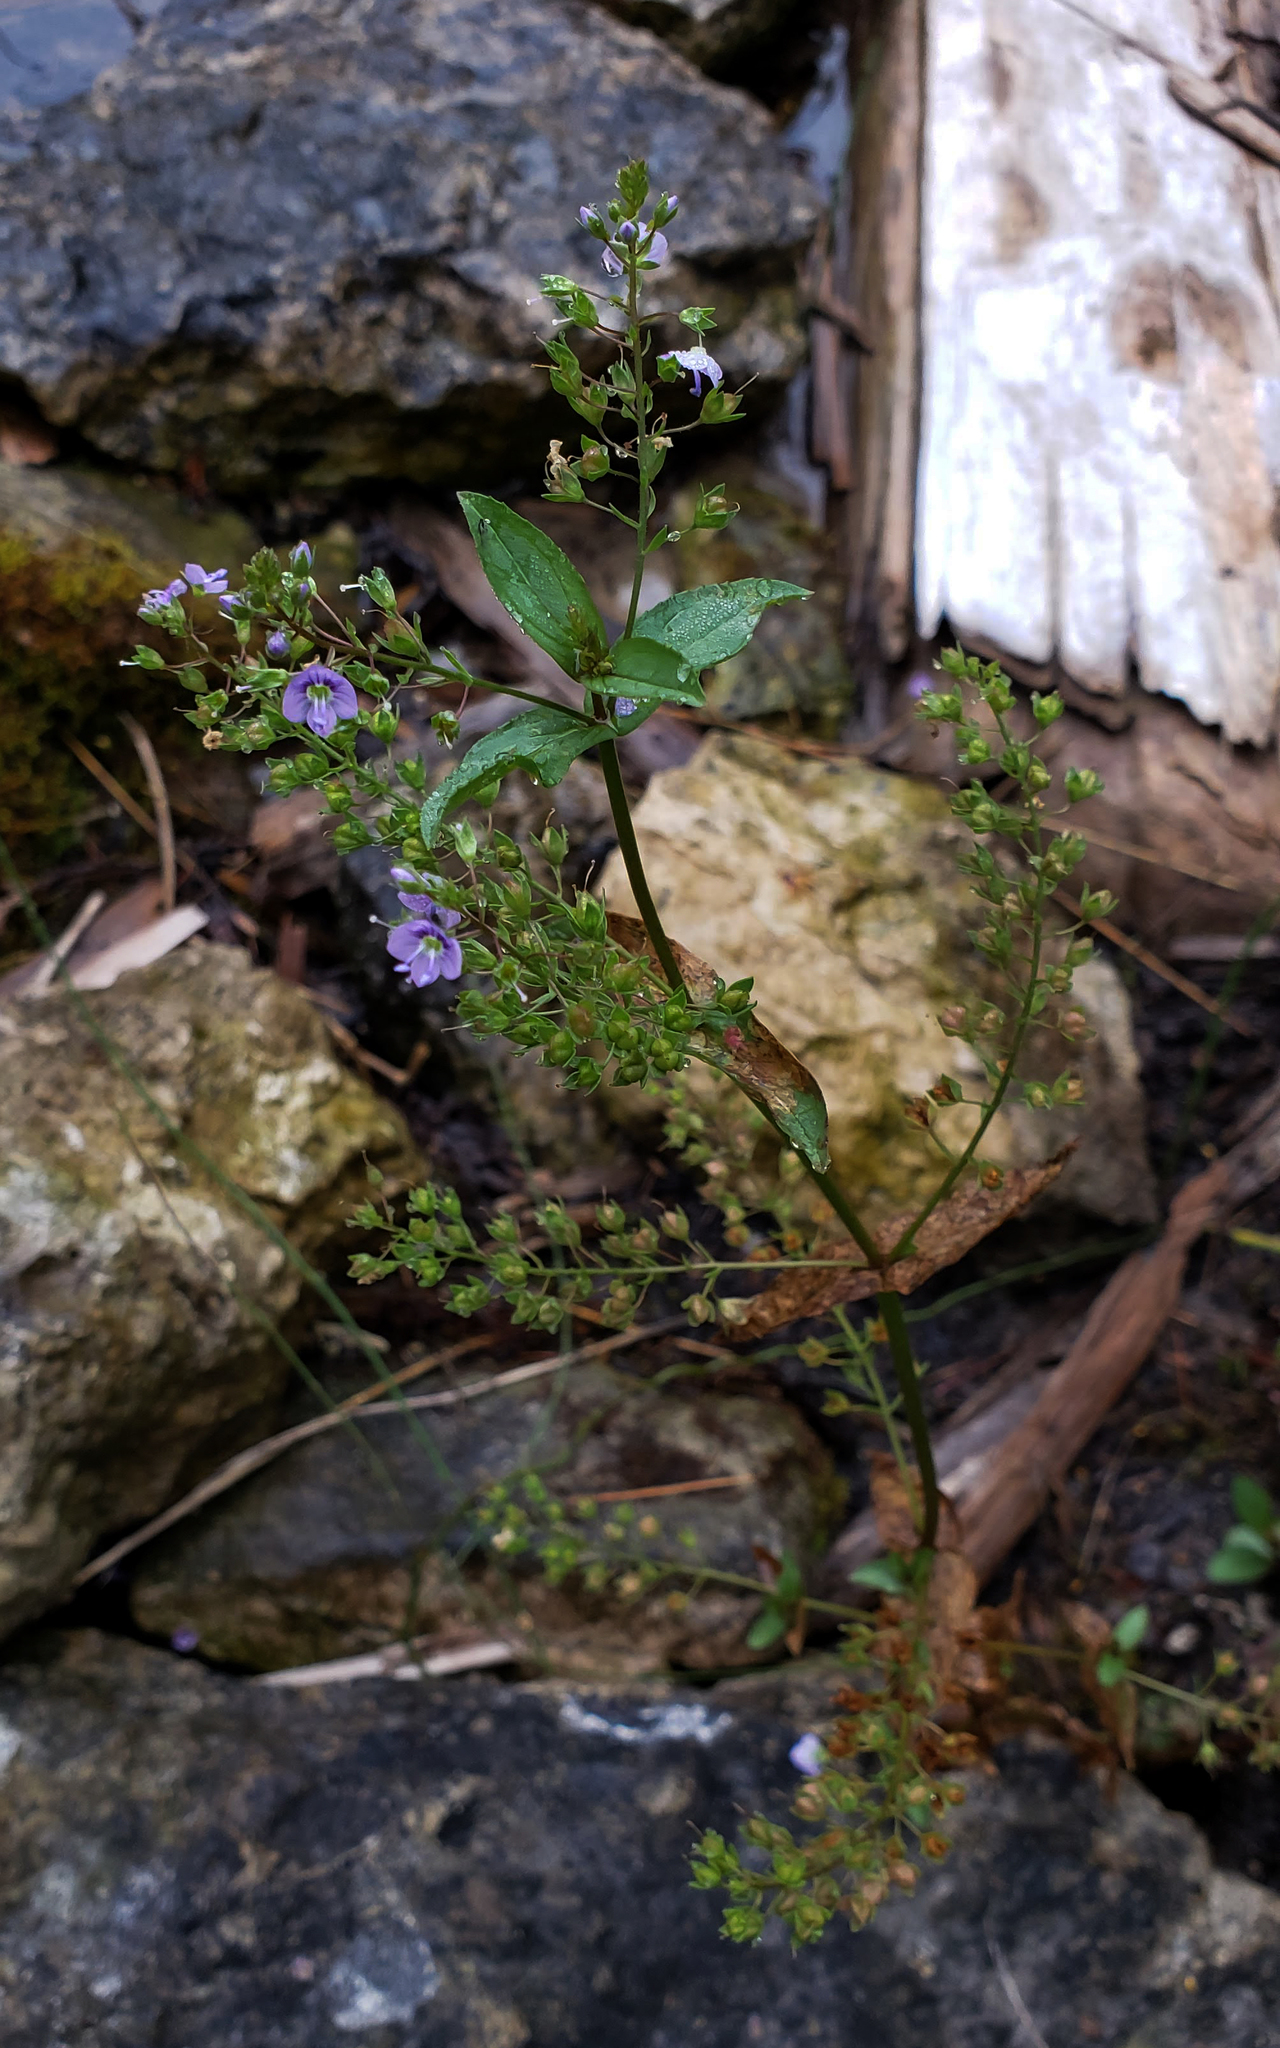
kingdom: Plantae
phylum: Tracheophyta
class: Magnoliopsida
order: Lamiales
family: Plantaginaceae
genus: Veronica
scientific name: Veronica anagallis-aquatica
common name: Water speedwell
